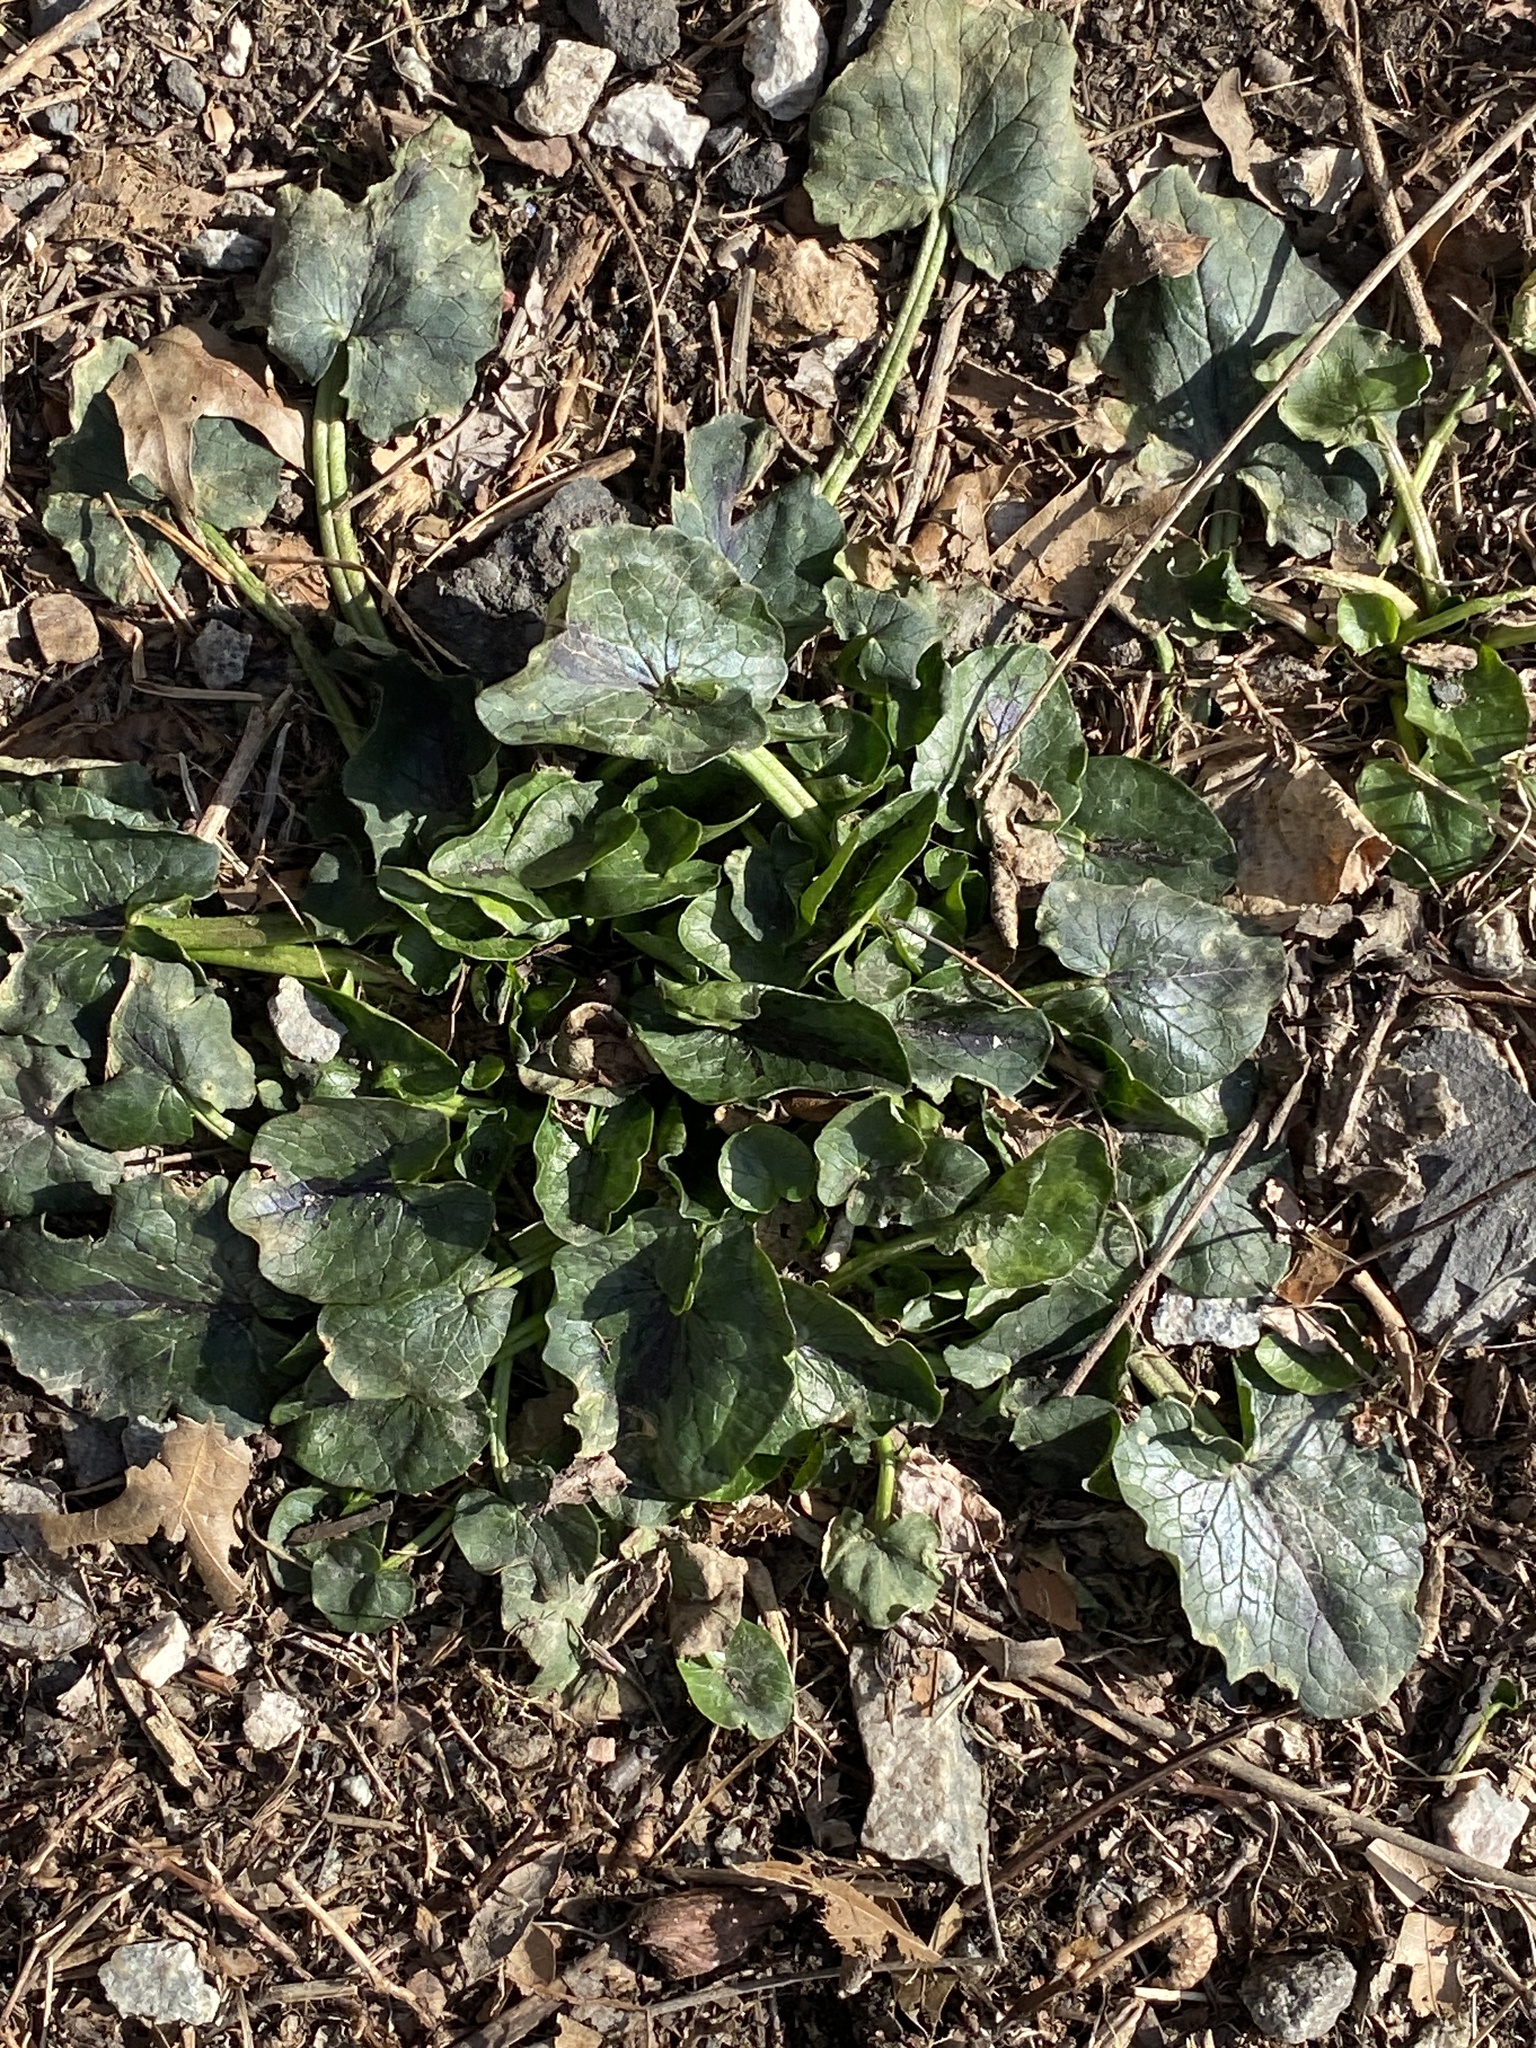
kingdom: Plantae
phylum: Tracheophyta
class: Magnoliopsida
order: Ranunculales
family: Ranunculaceae
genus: Ficaria
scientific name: Ficaria verna
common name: Lesser celandine
